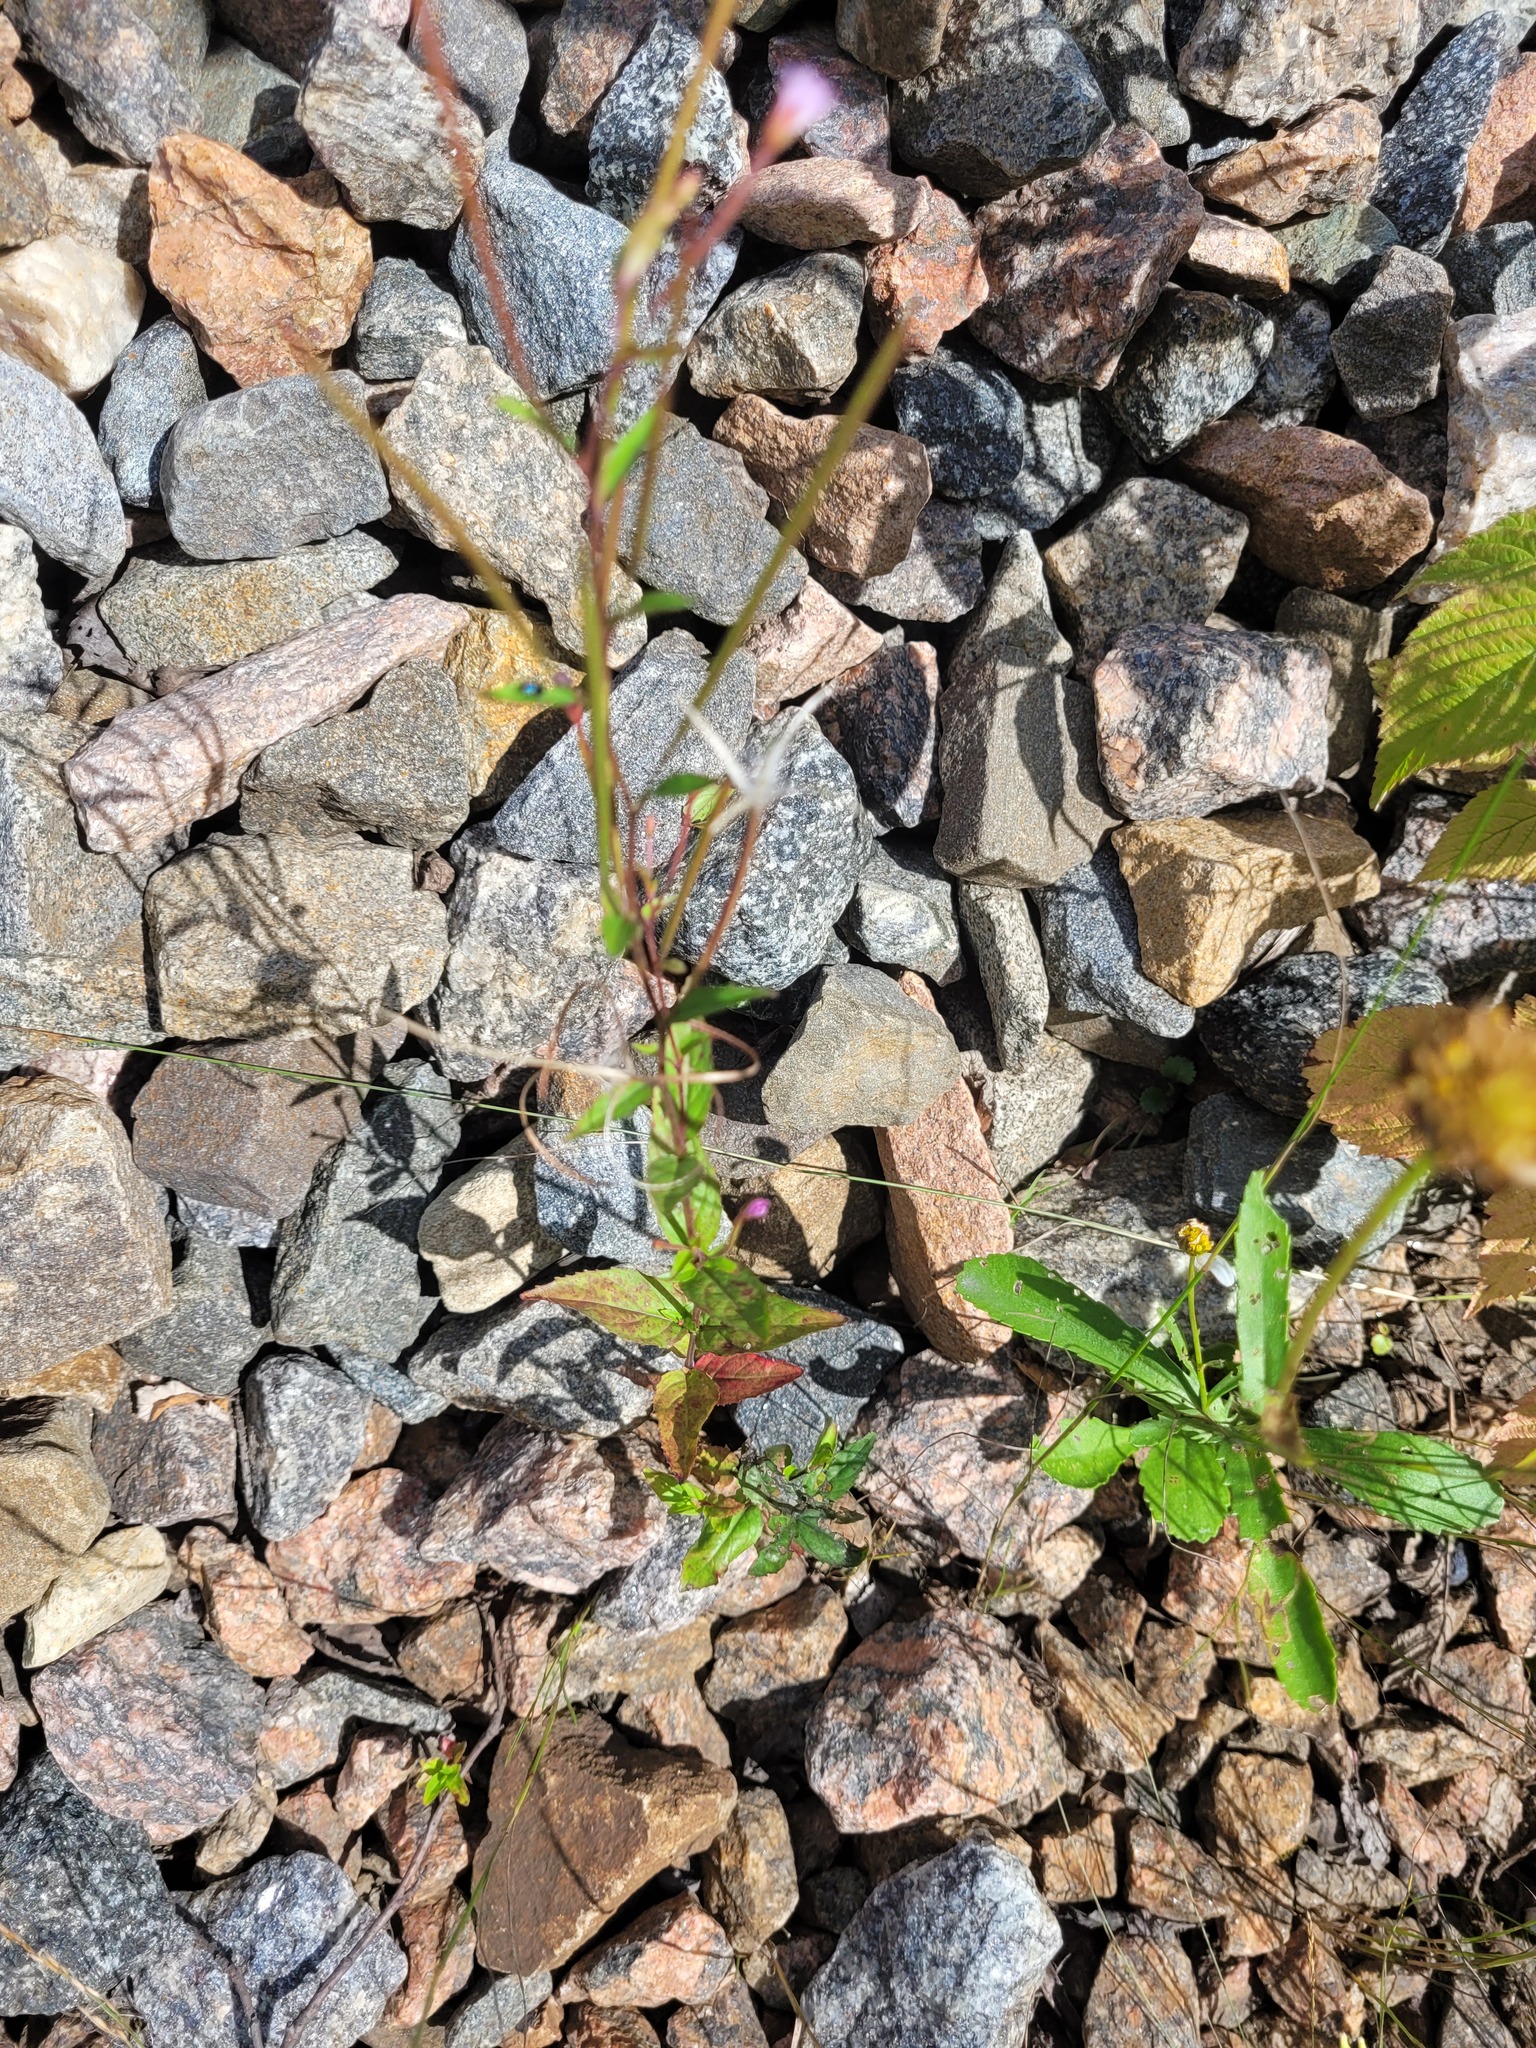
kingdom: Plantae
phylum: Tracheophyta
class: Magnoliopsida
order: Myrtales
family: Onagraceae
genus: Epilobium
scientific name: Epilobium montanum
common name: Broad-leaved willowherb
